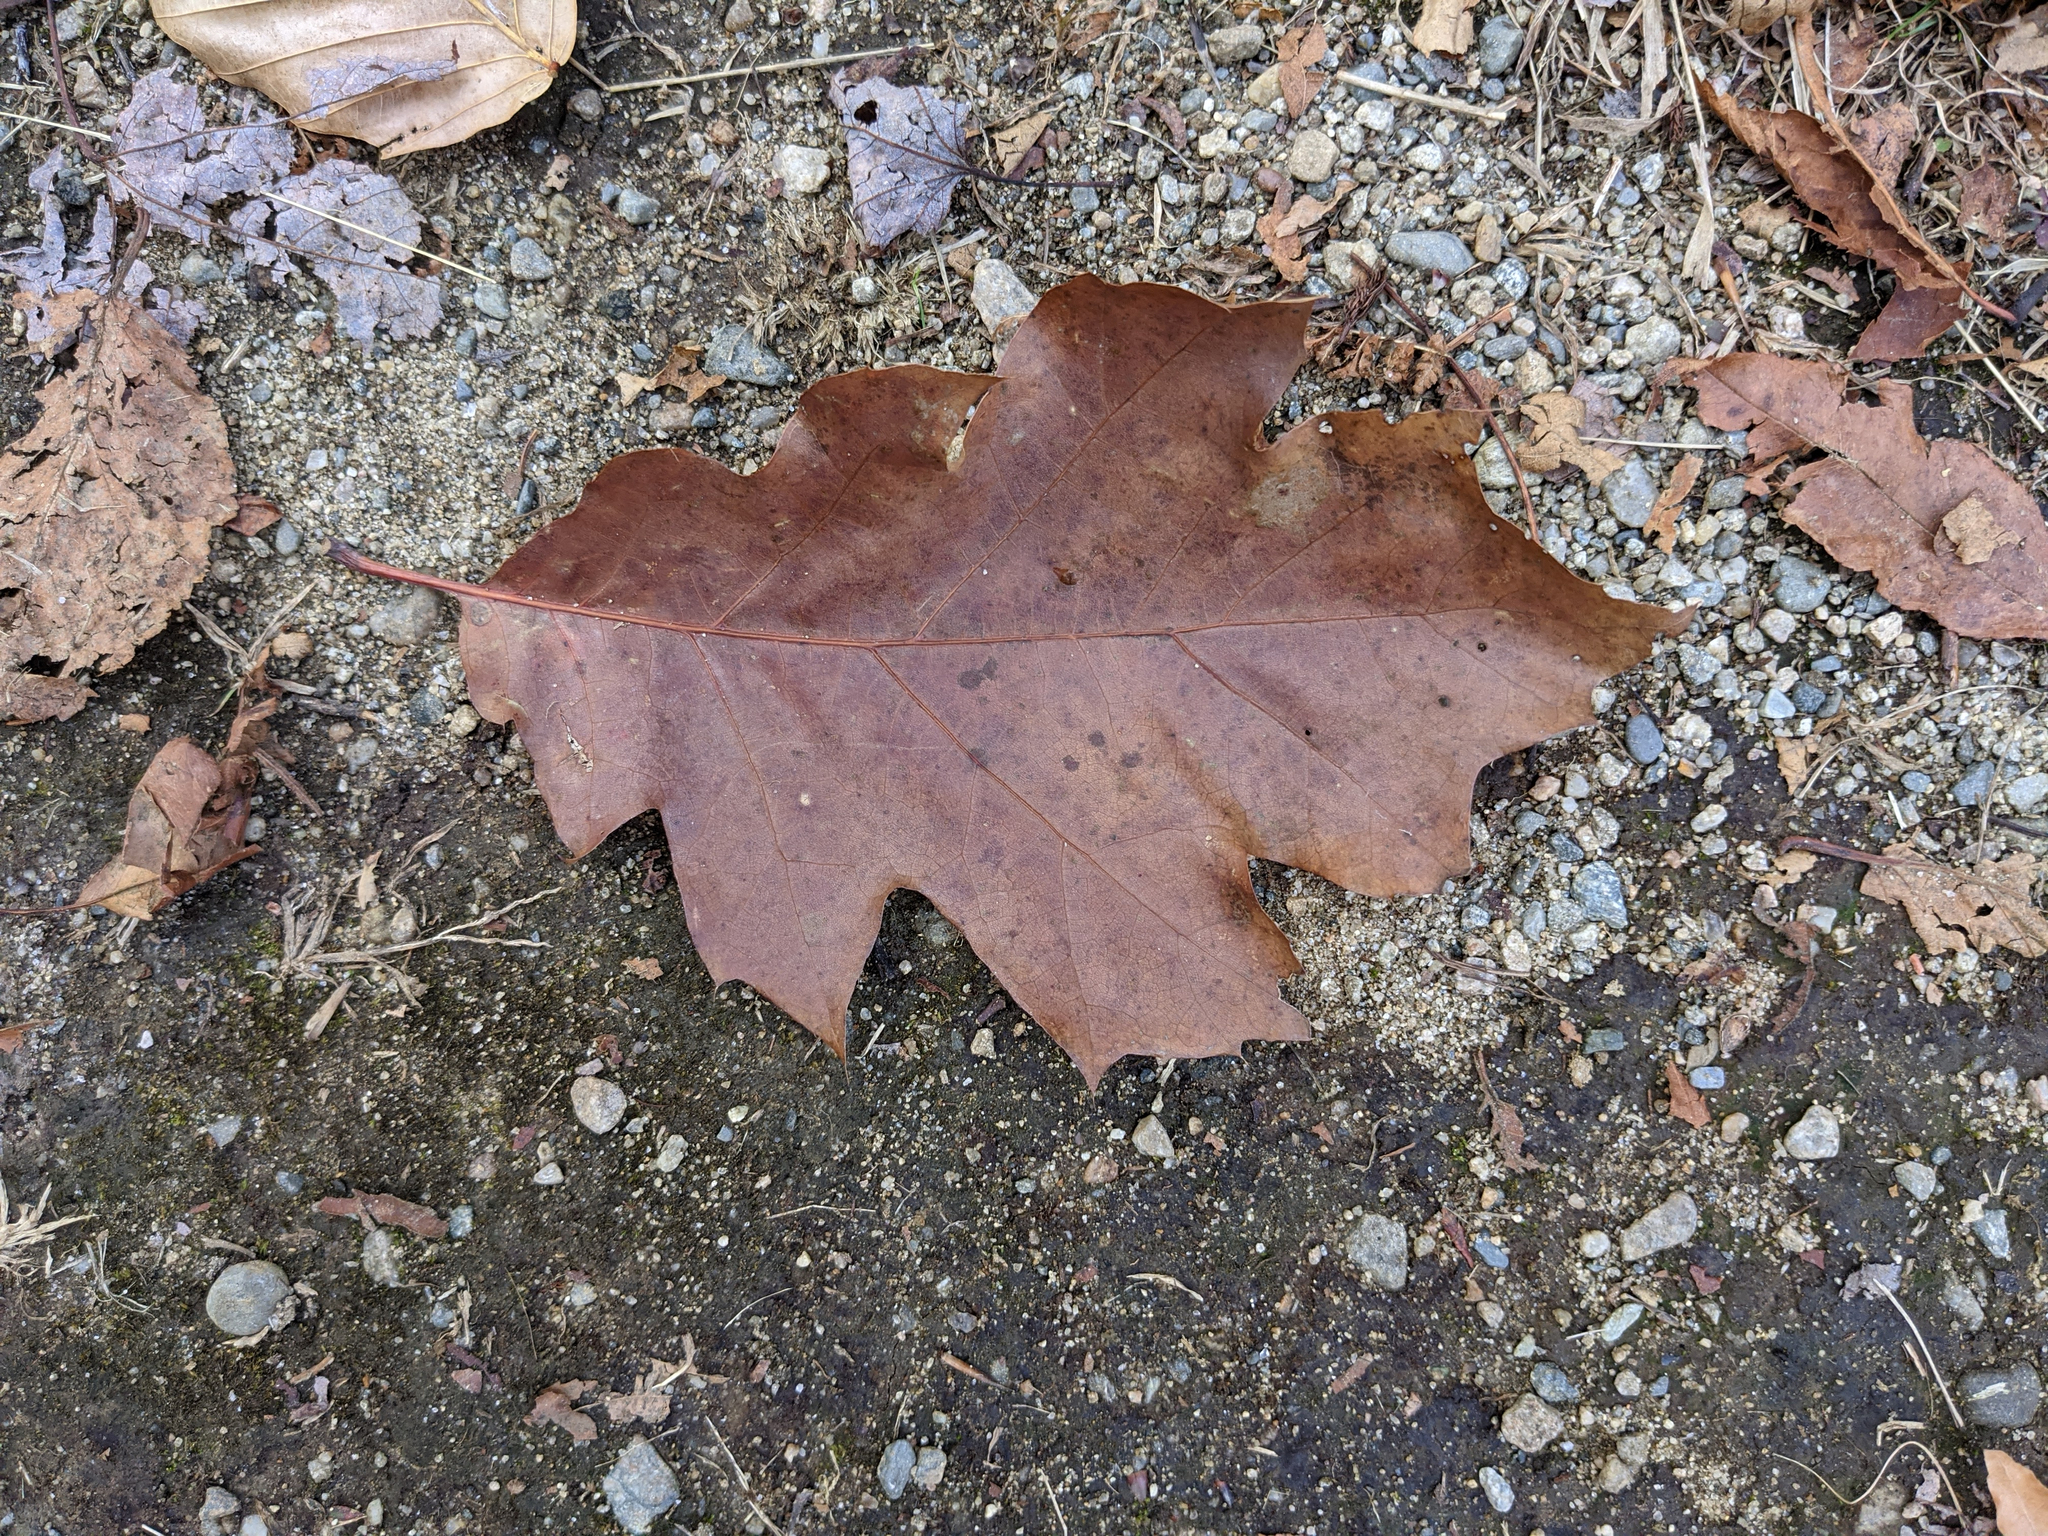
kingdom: Plantae
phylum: Tracheophyta
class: Magnoliopsida
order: Fagales
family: Fagaceae
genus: Quercus
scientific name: Quercus rubra
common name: Red oak
